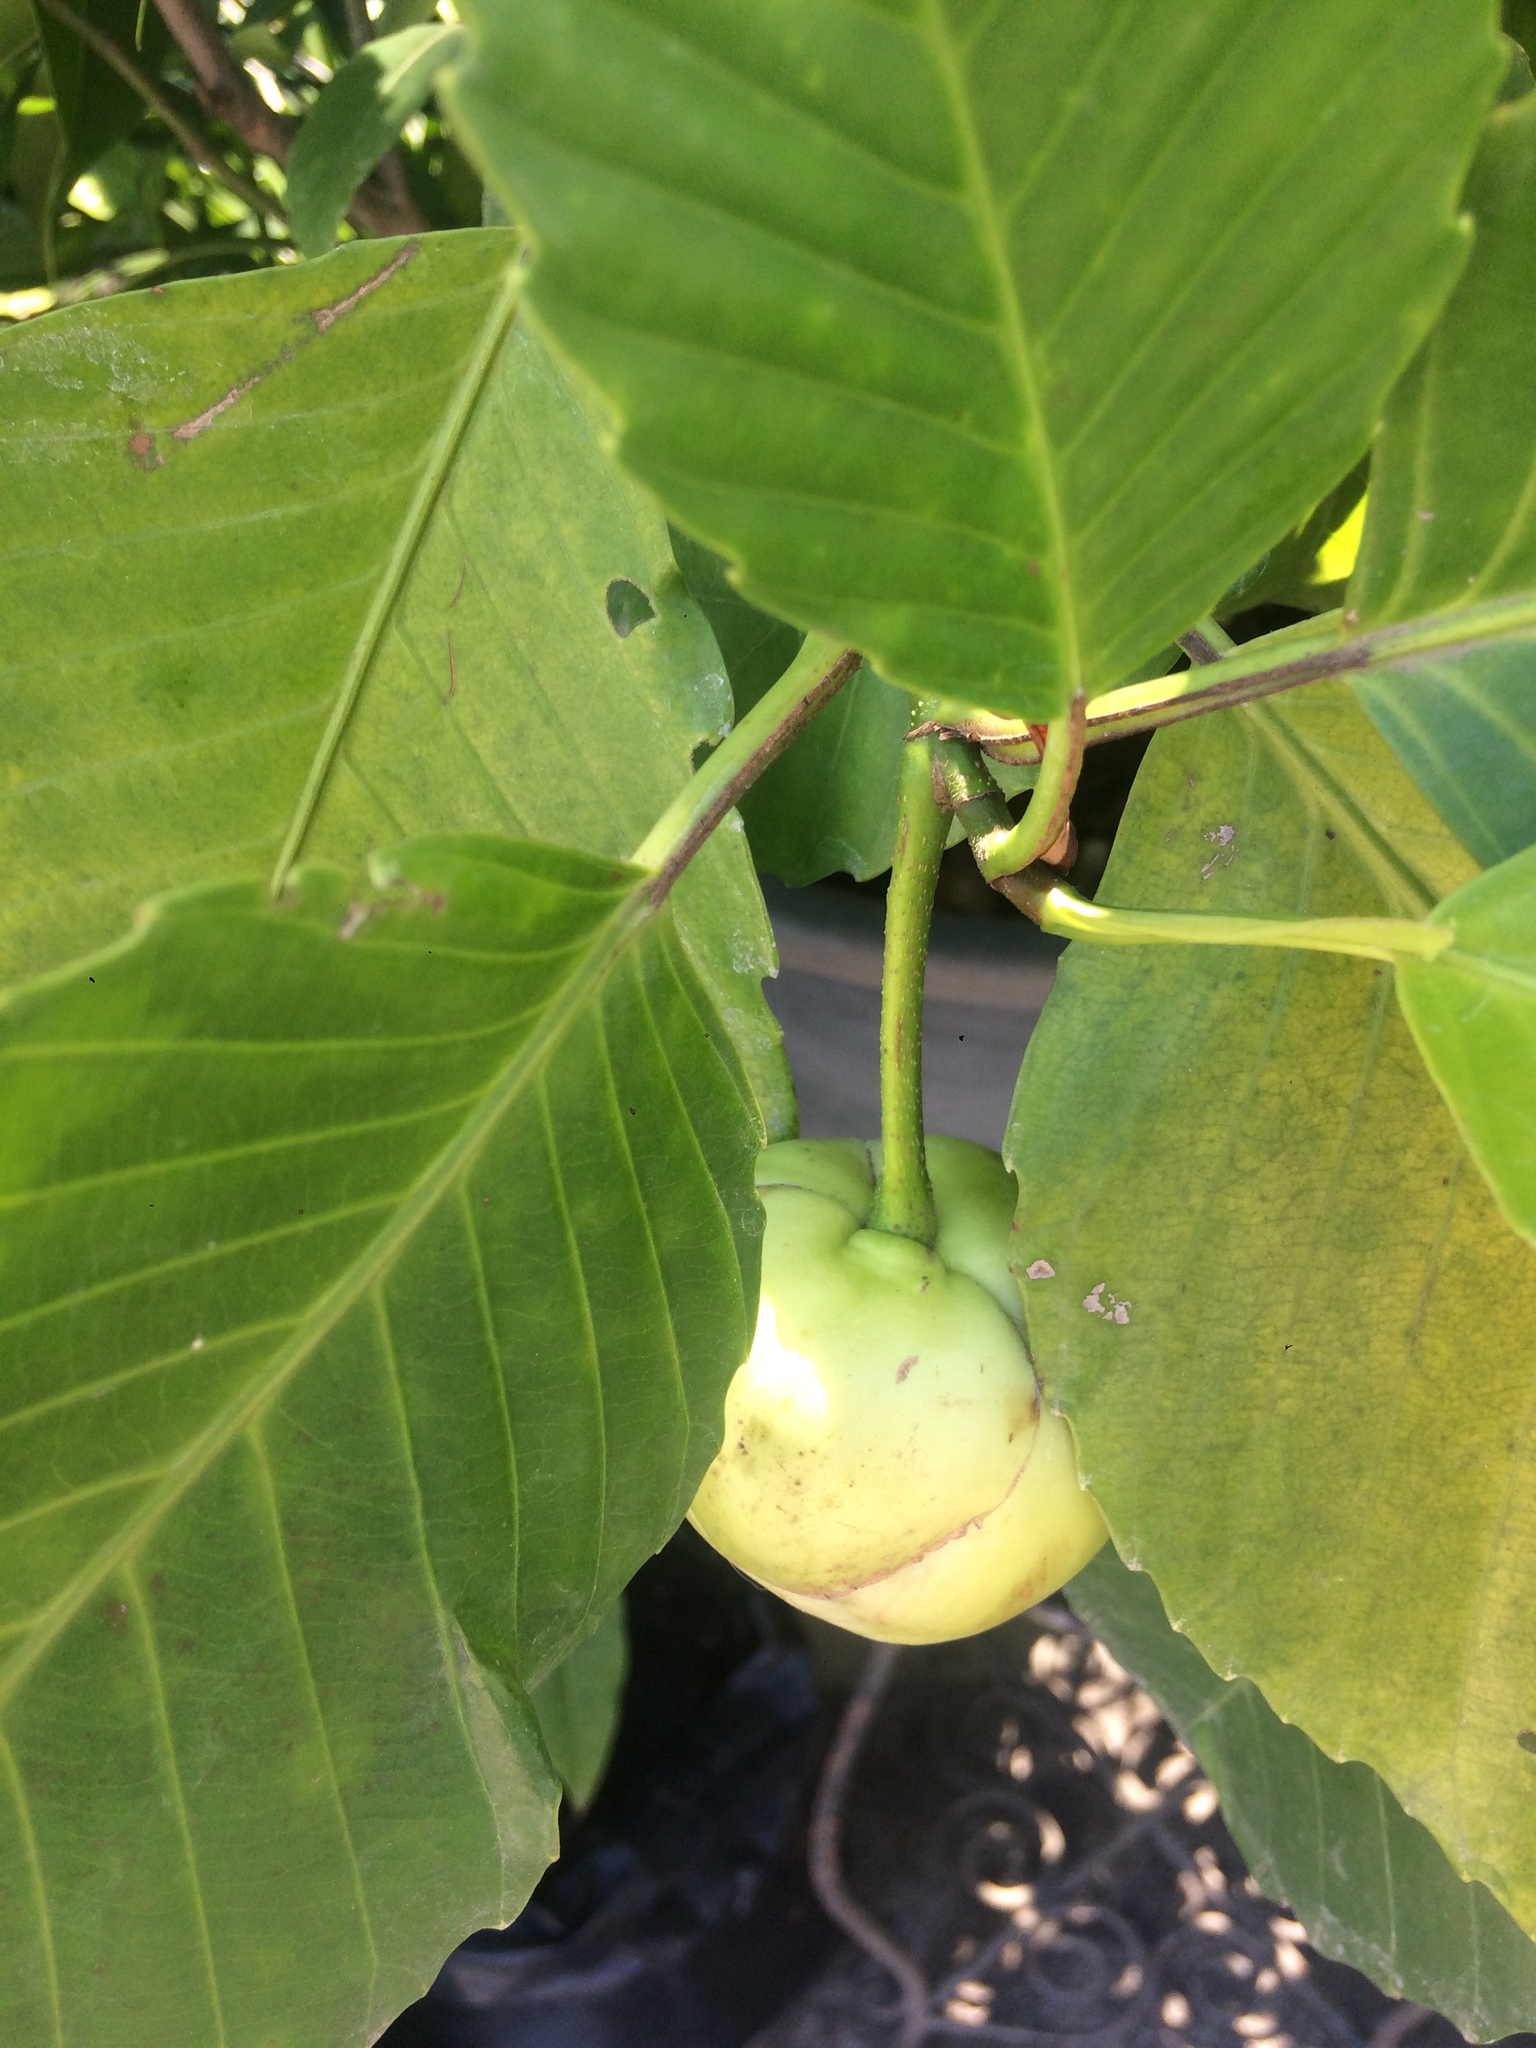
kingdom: Plantae
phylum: Tracheophyta
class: Magnoliopsida
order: Dilleniales
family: Dilleniaceae
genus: Dillenia
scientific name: Dillenia philippinensis
